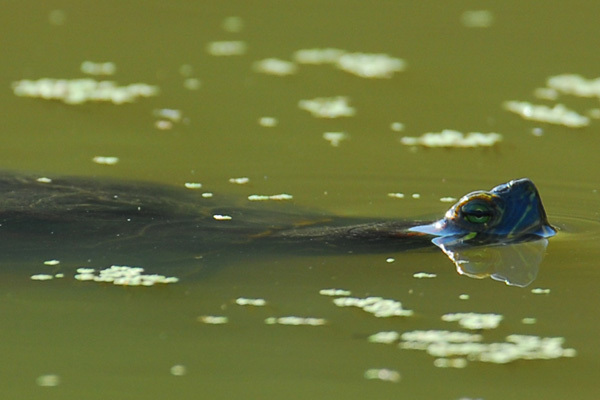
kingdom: Animalia
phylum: Chordata
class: Testudines
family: Emydidae
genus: Trachemys
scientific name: Trachemys scripta
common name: Slider
